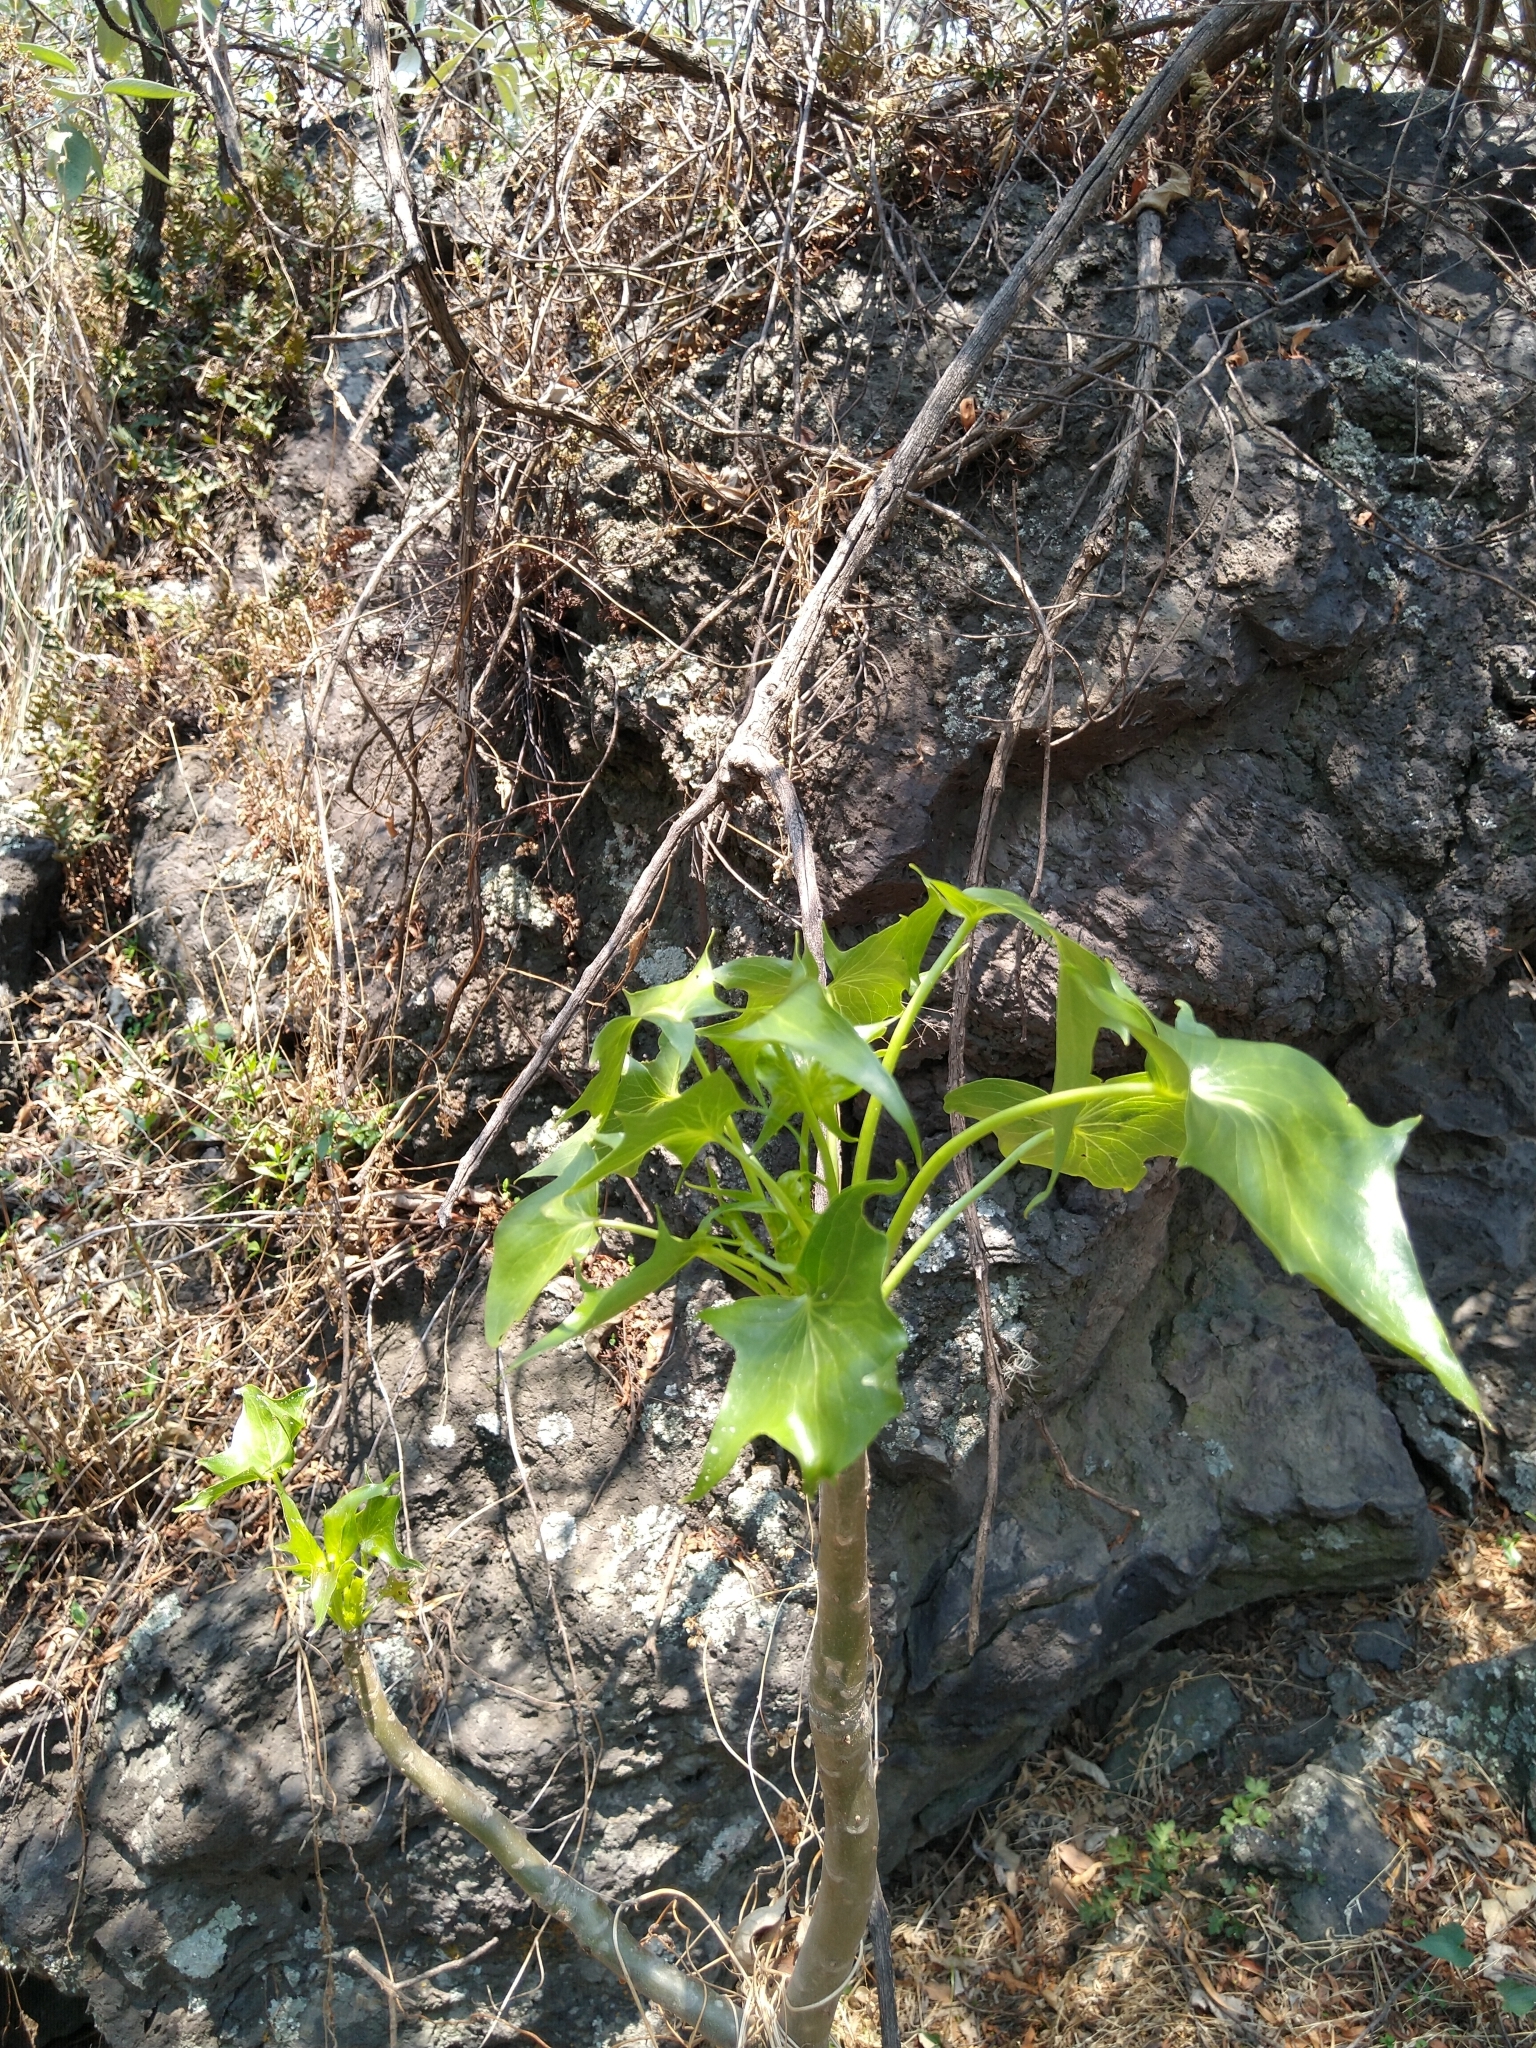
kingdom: Plantae
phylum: Tracheophyta
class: Magnoliopsida
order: Asterales
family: Asteraceae
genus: Pittocaulon
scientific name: Pittocaulon praecox
